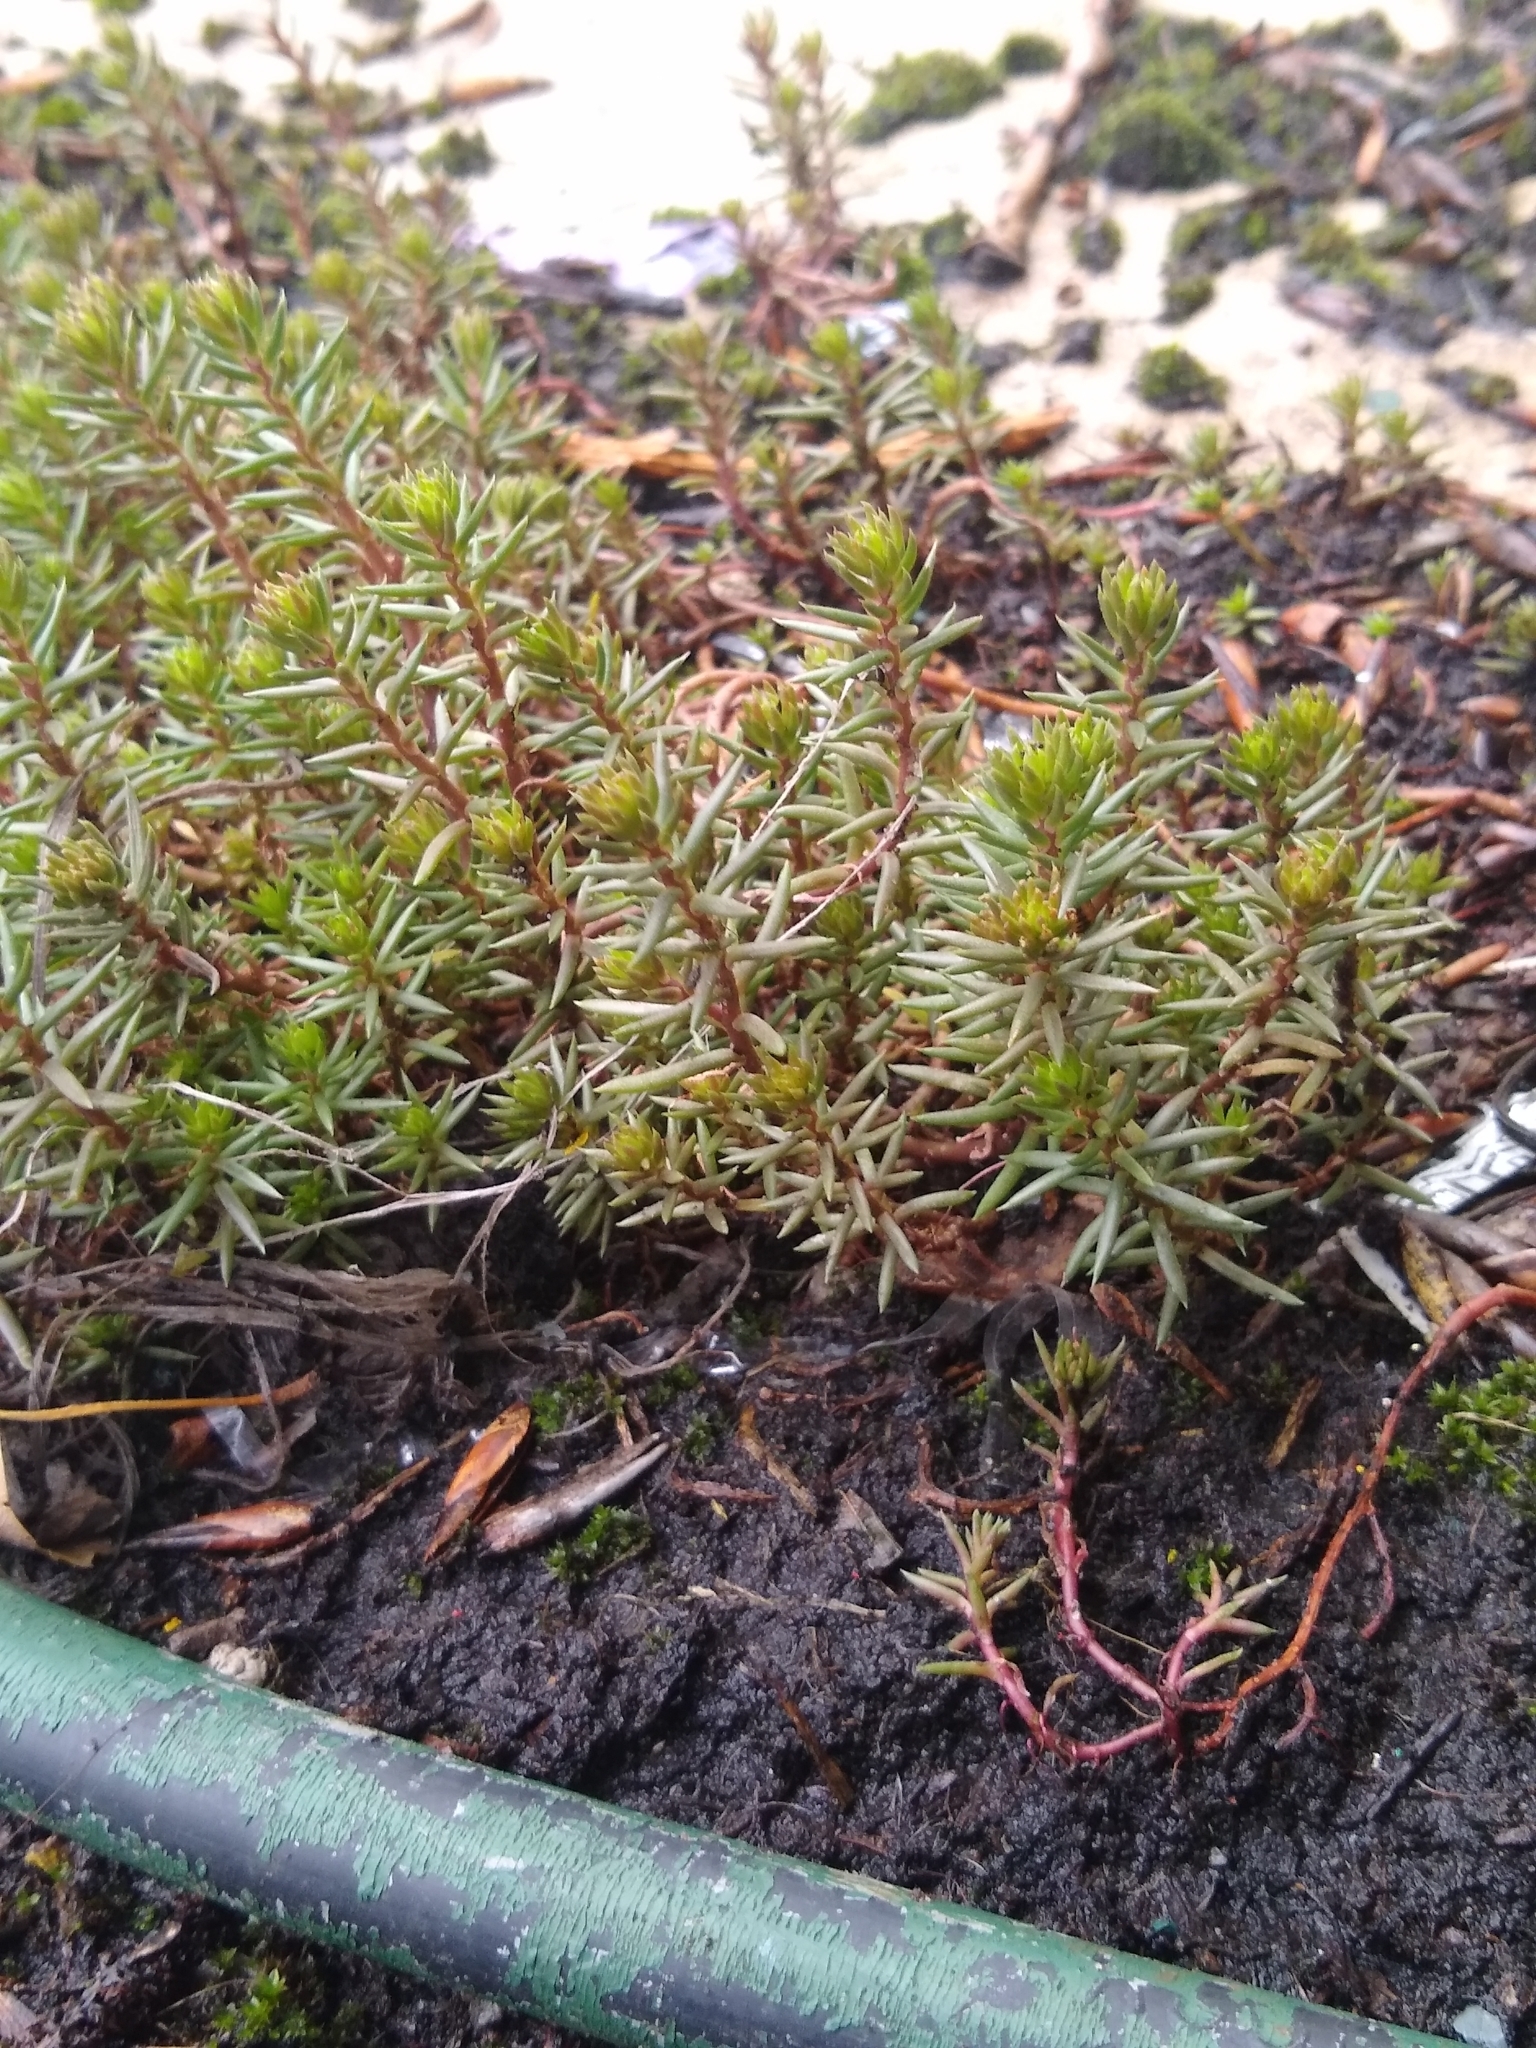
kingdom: Plantae
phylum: Tracheophyta
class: Magnoliopsida
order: Saxifragales
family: Crassulaceae
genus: Petrosedum
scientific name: Petrosedum rupestre
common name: Jenny's stonecrop
